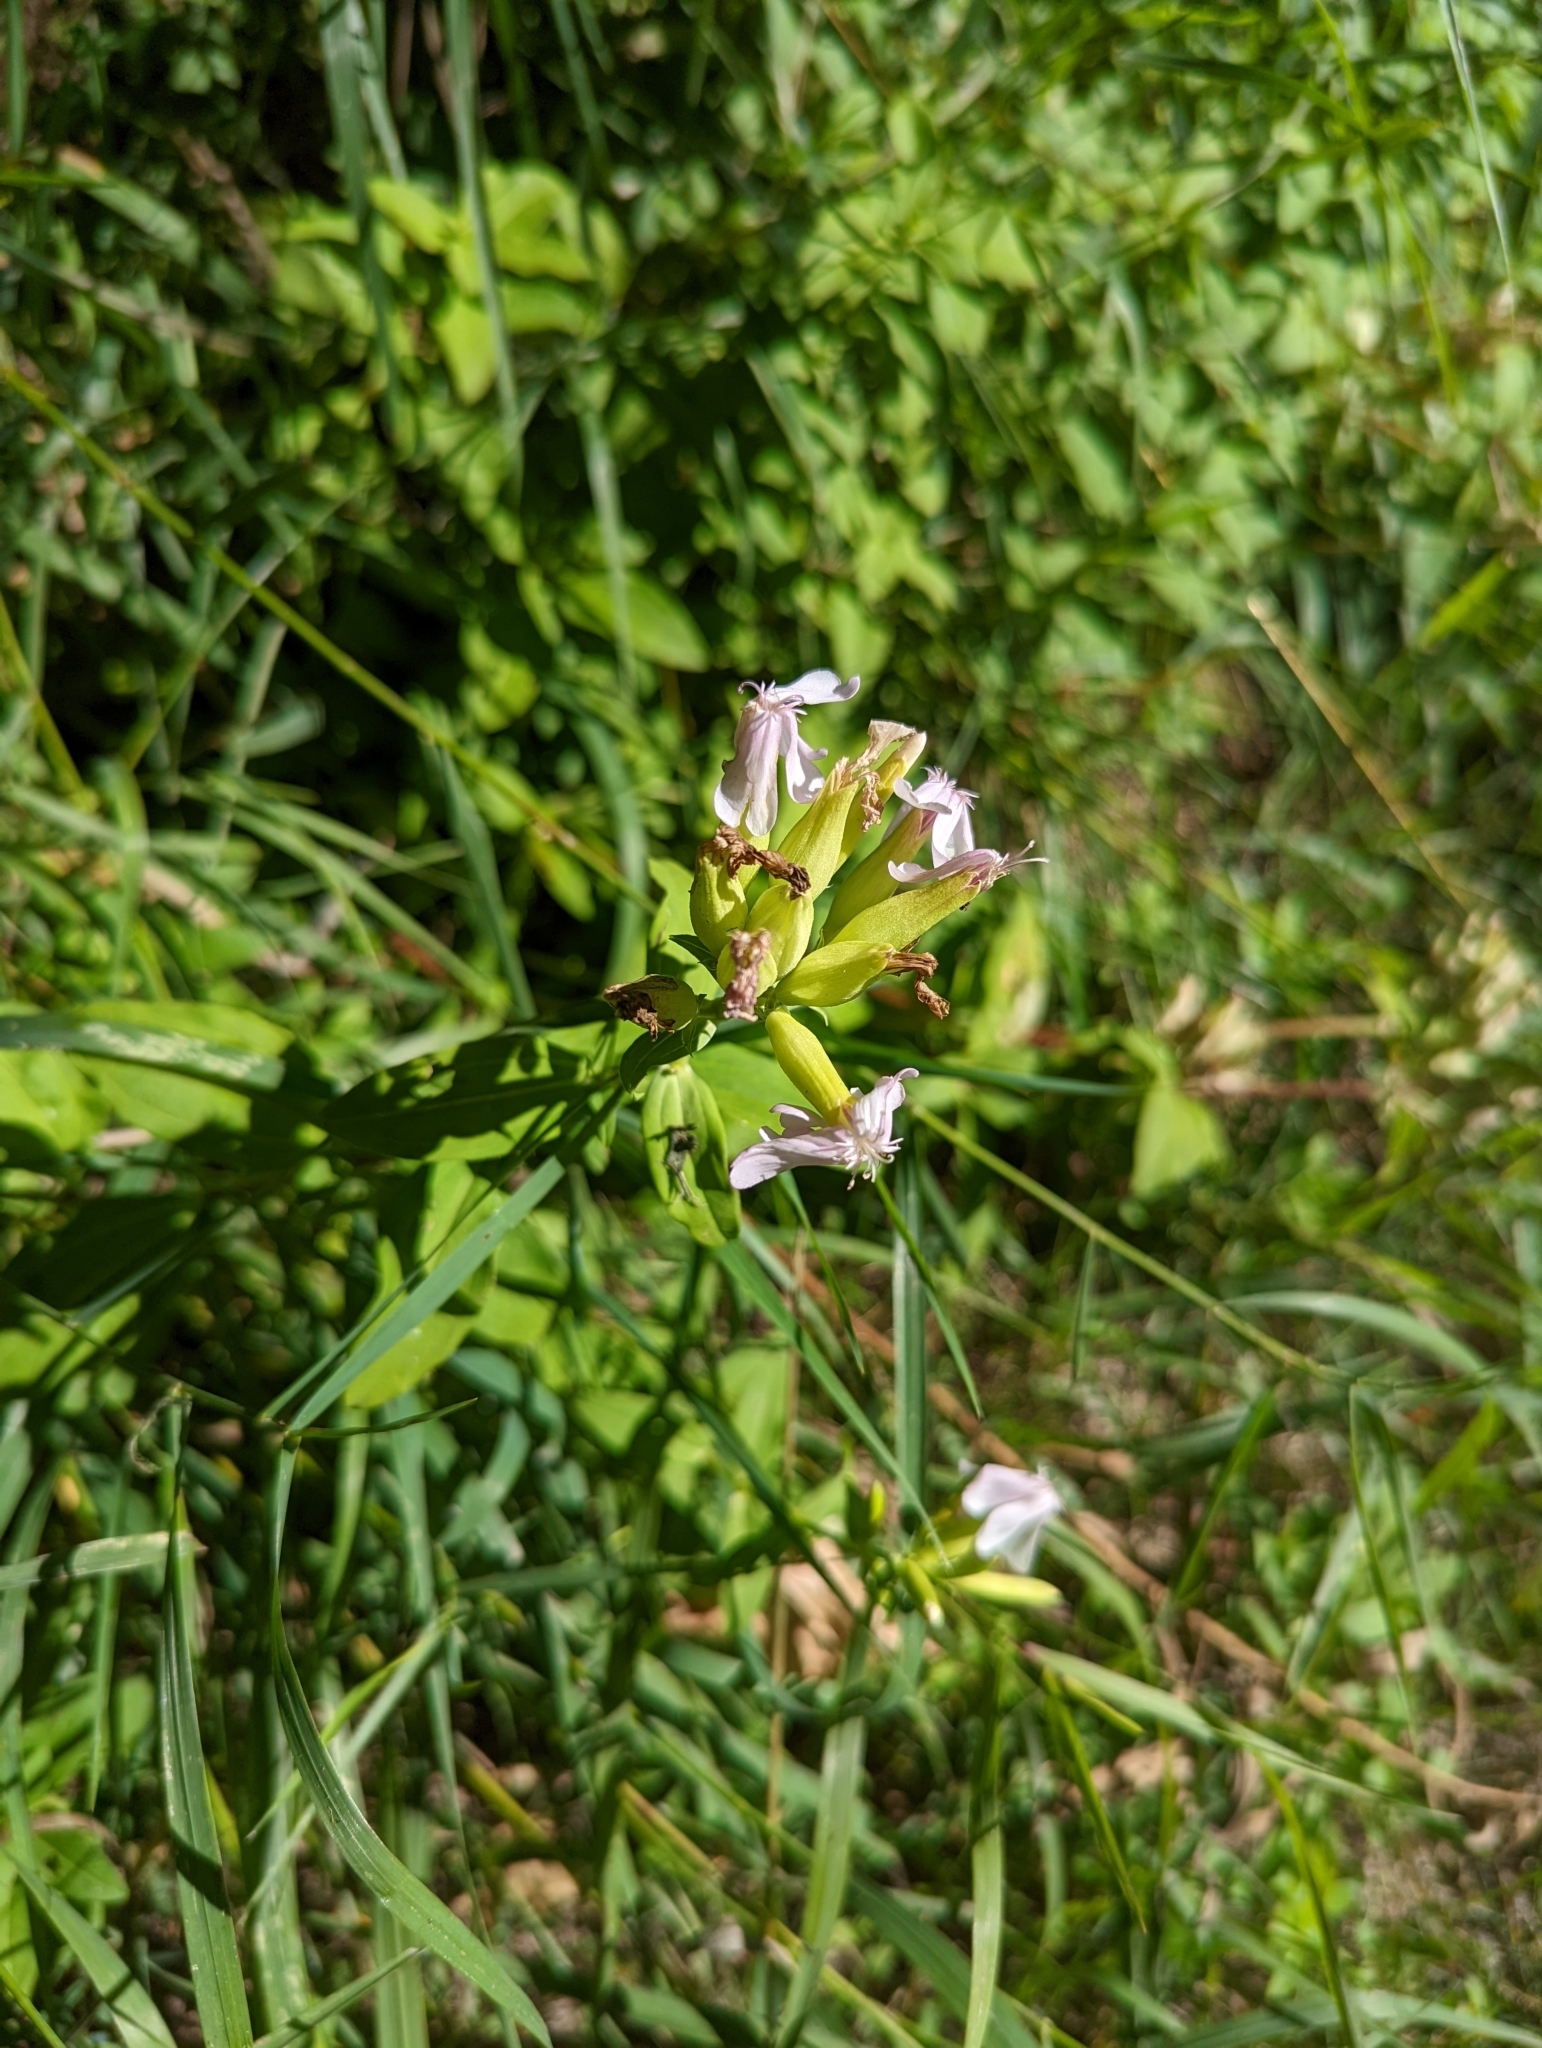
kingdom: Plantae
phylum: Tracheophyta
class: Magnoliopsida
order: Caryophyllales
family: Caryophyllaceae
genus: Saponaria
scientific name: Saponaria officinalis
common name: Soapwort
